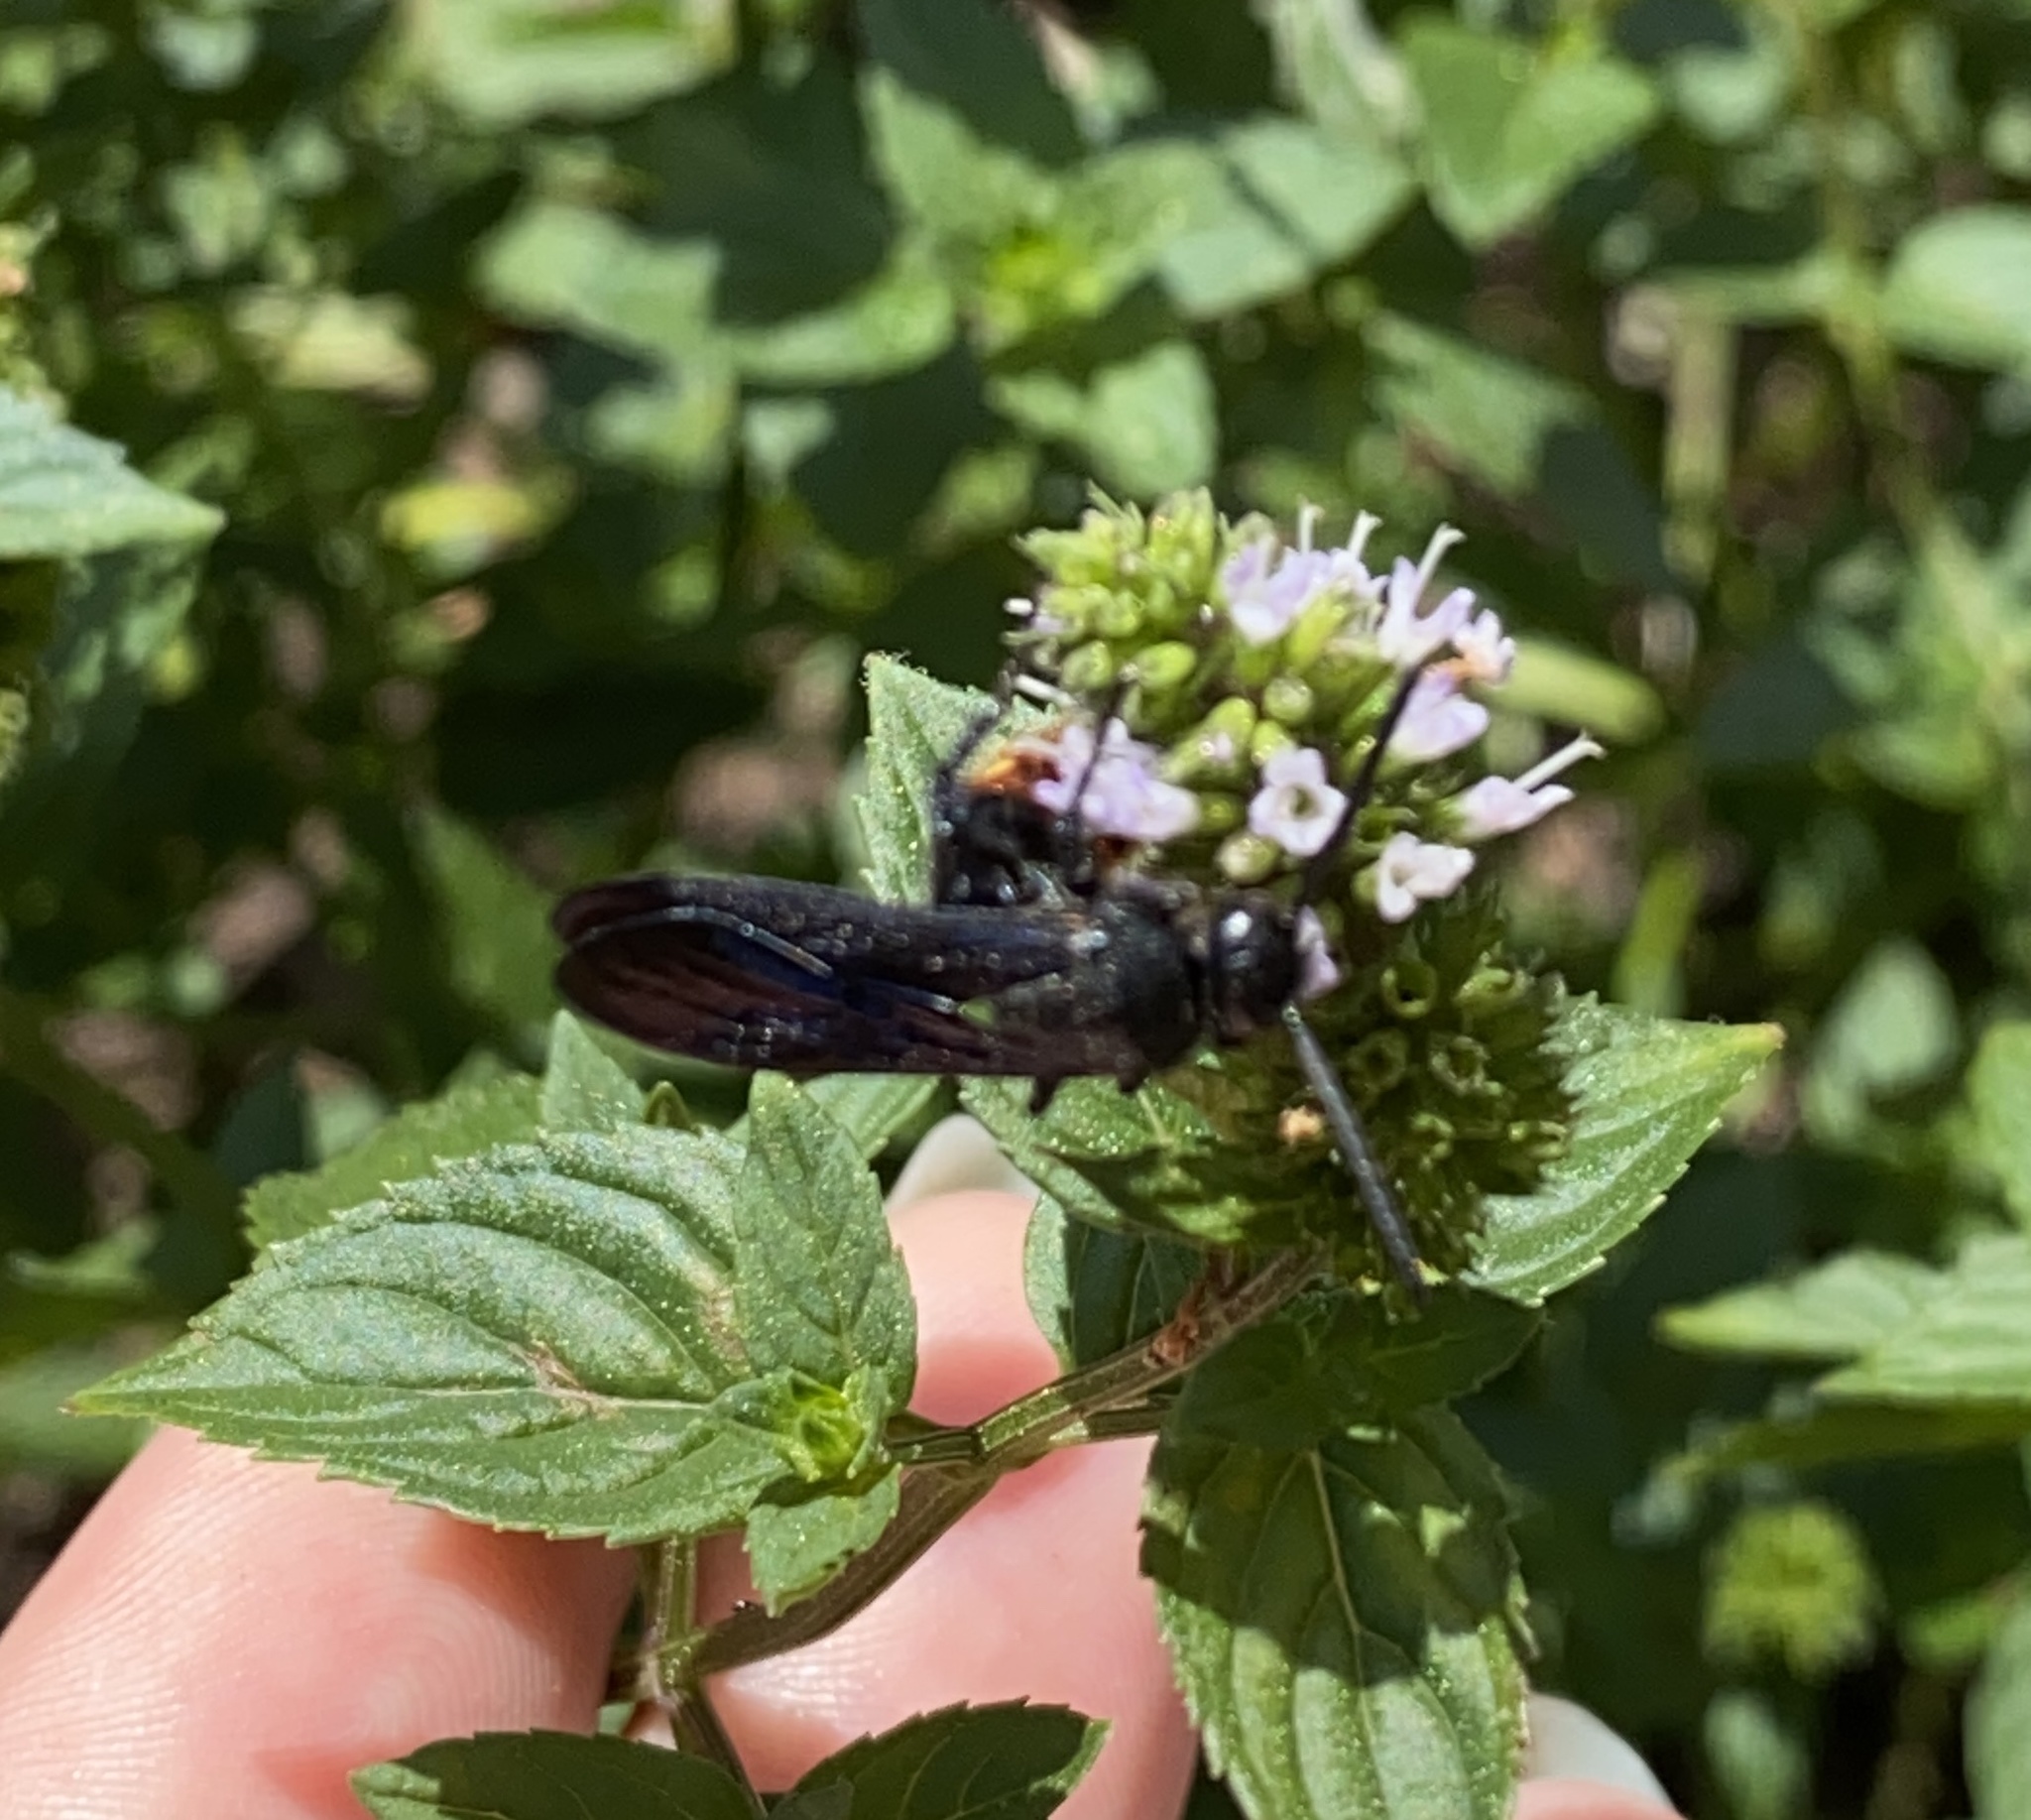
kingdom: Animalia
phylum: Arthropoda
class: Insecta
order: Hymenoptera
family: Scoliidae
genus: Scolia
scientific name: Scolia dubia
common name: Blue-winged scoliid wasp
